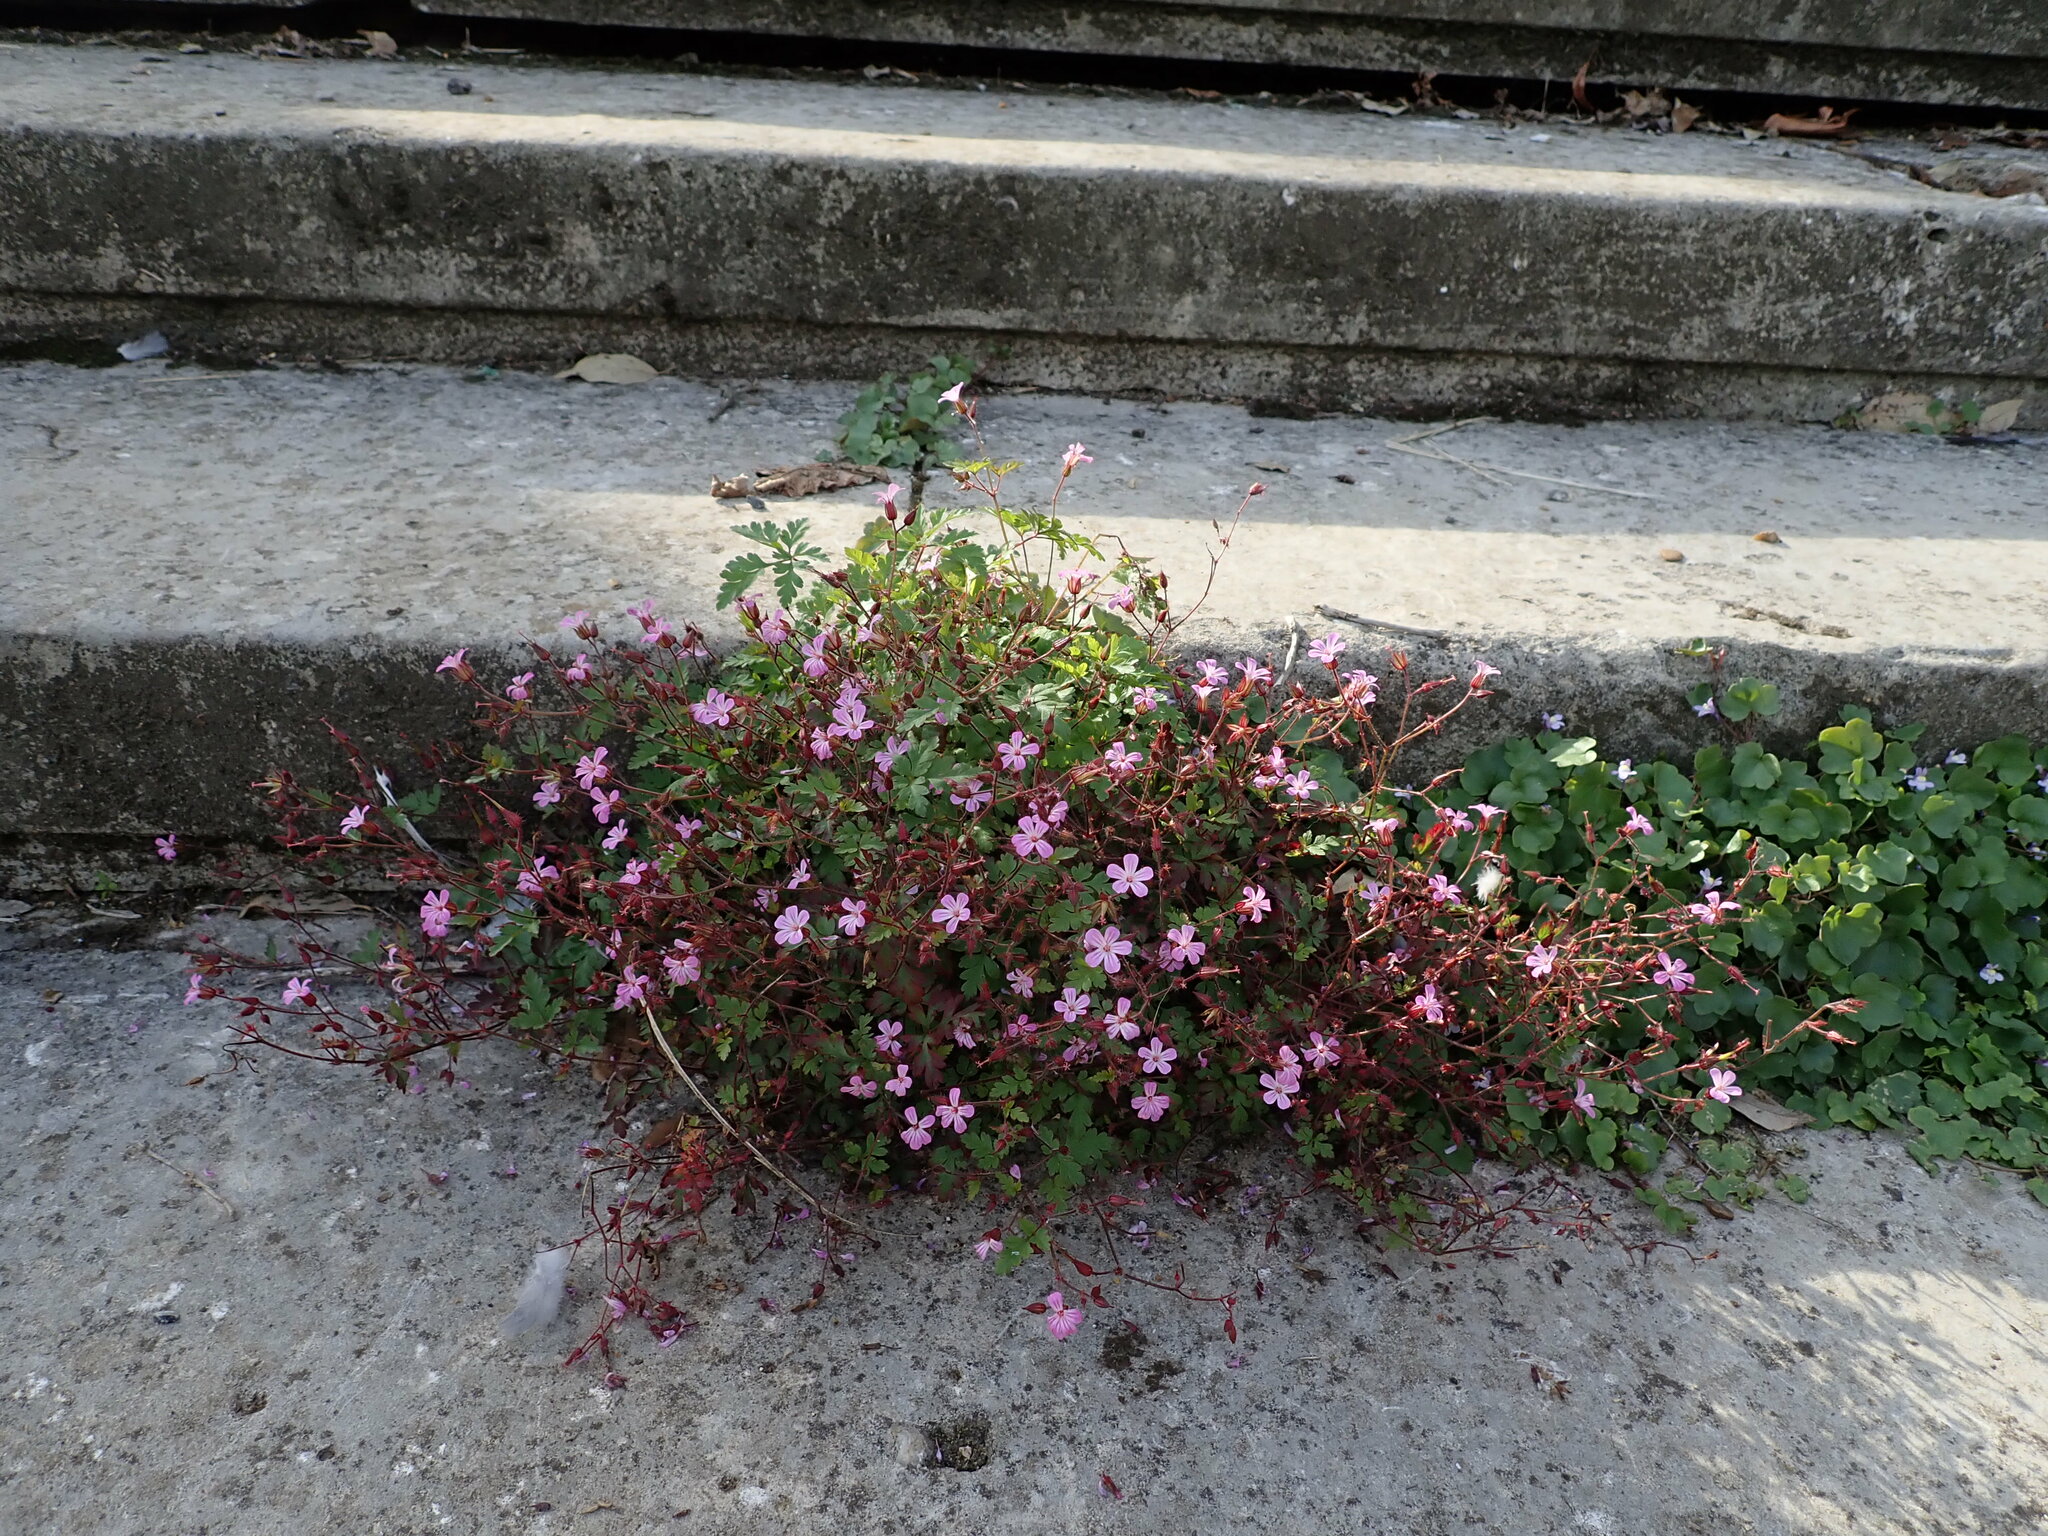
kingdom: Plantae
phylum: Tracheophyta
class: Magnoliopsida
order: Geraniales
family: Geraniaceae
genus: Geranium
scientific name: Geranium robertianum
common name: Herb-robert
